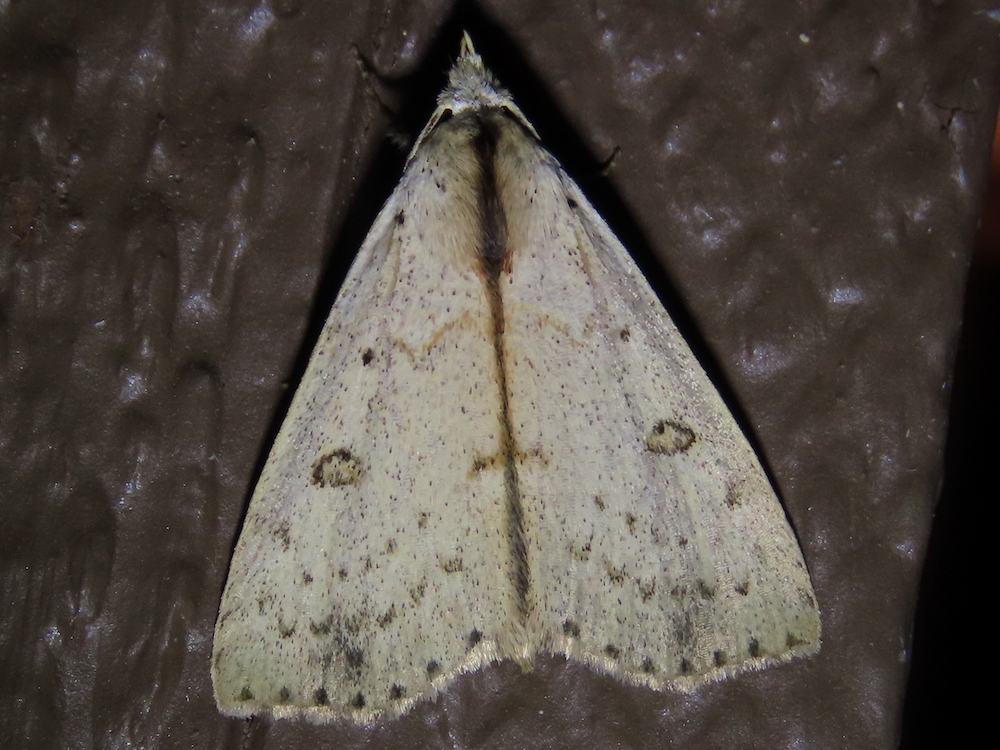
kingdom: Animalia
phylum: Arthropoda
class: Insecta
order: Lepidoptera
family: Erebidae
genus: Scolecocampa
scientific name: Scolecocampa liburna
